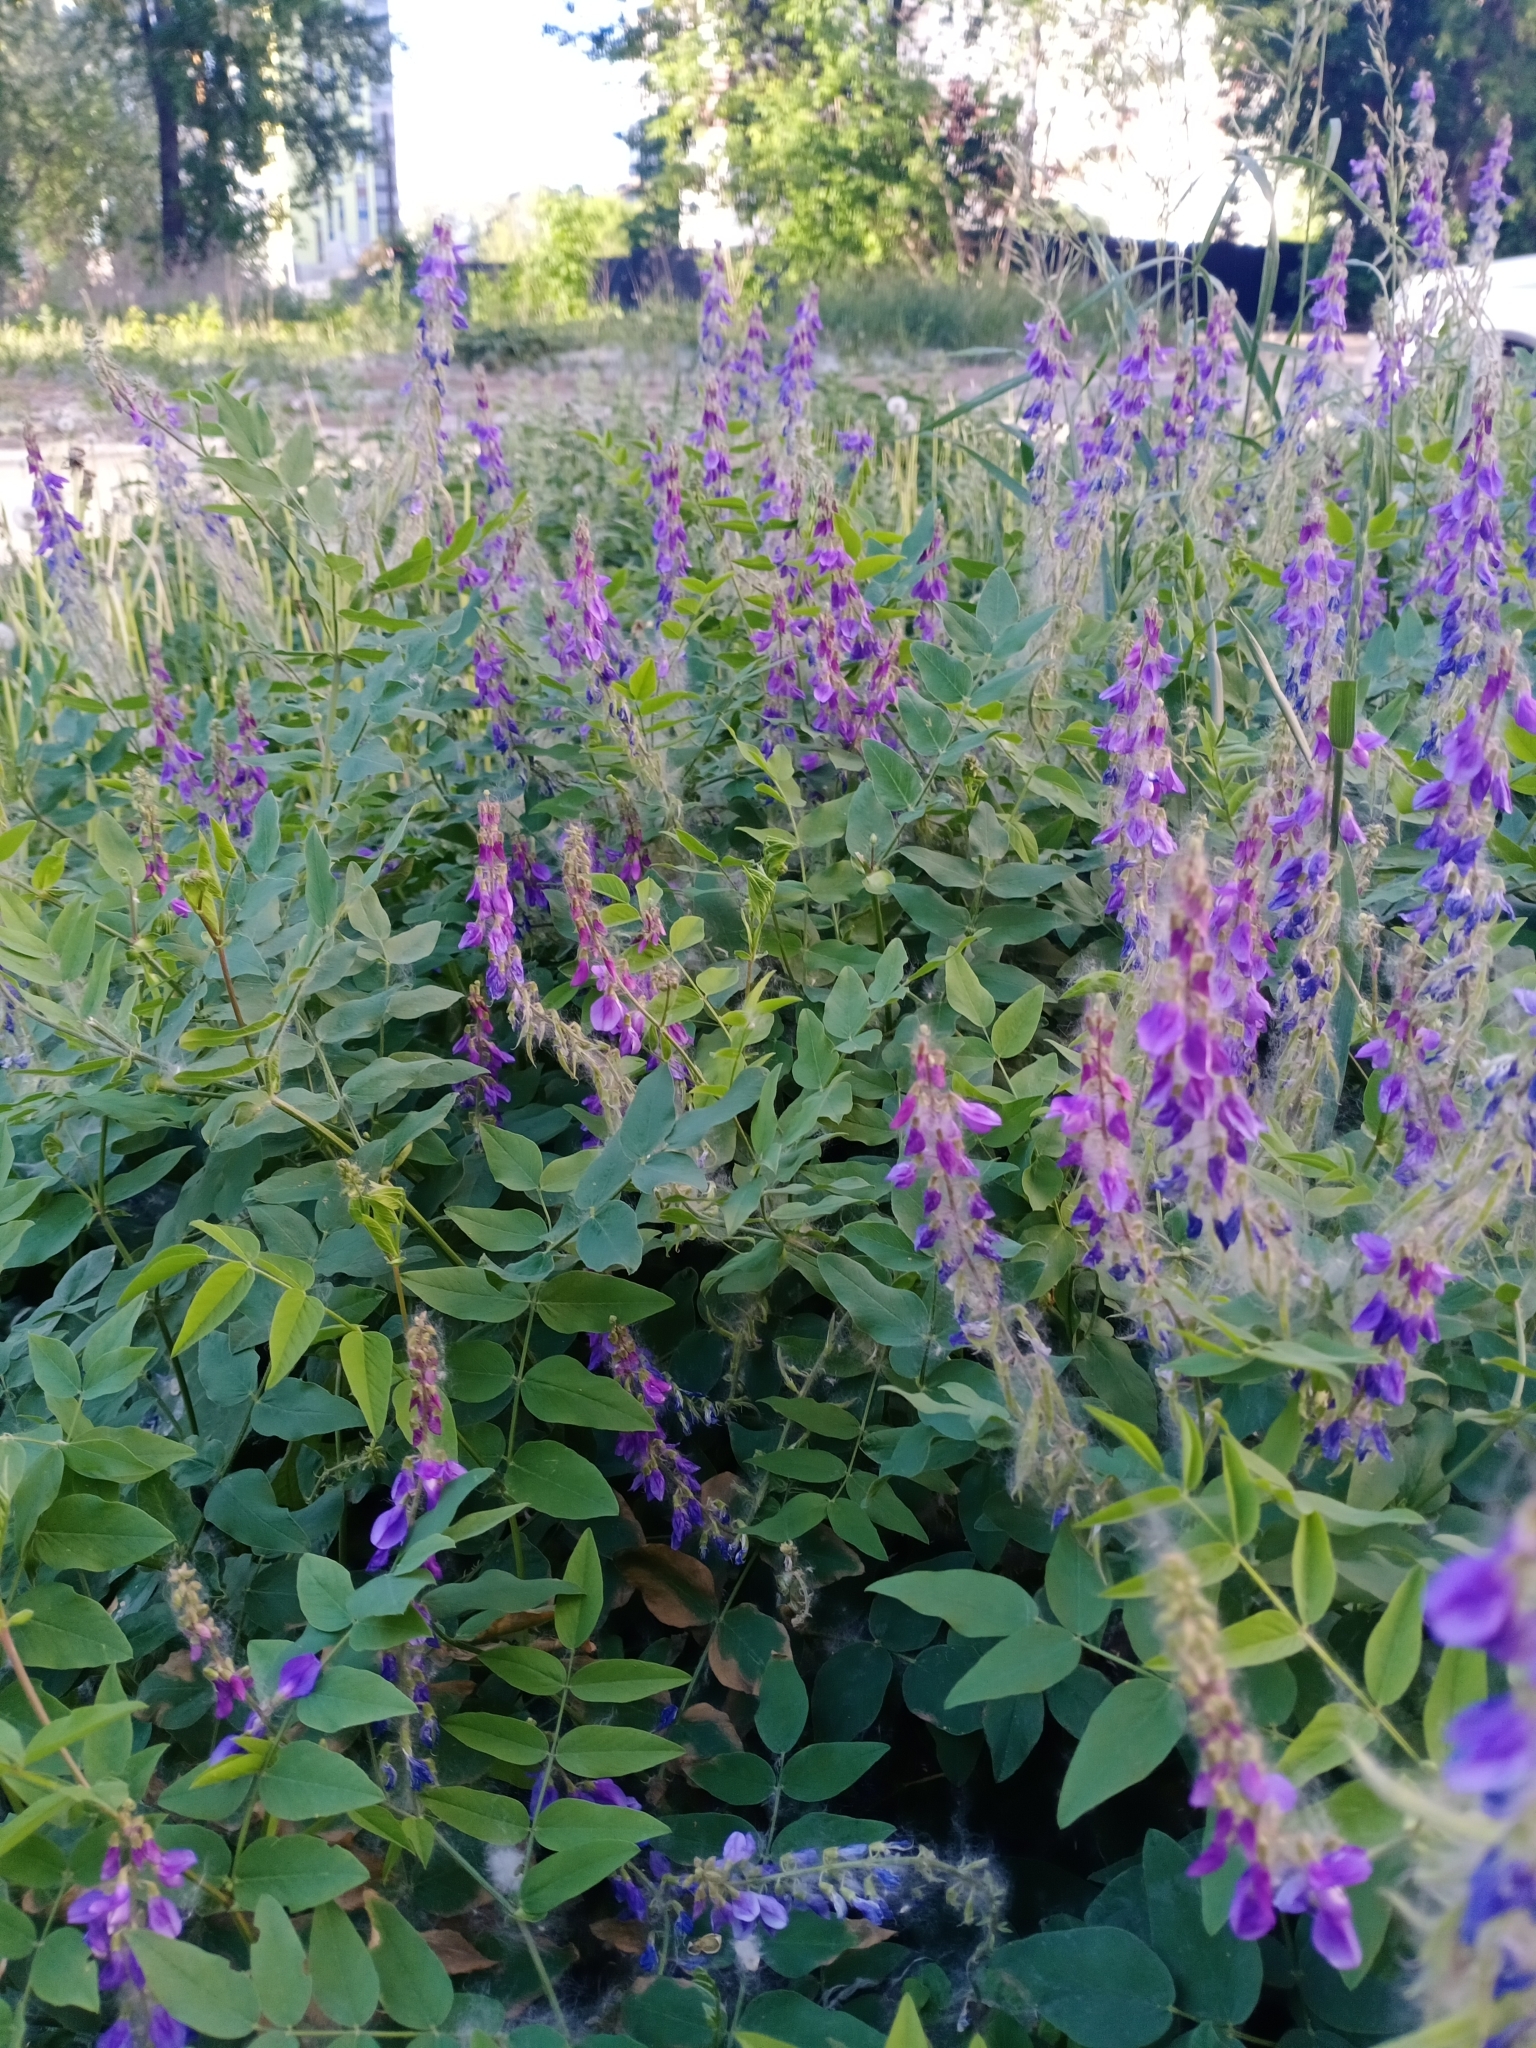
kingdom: Plantae
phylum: Tracheophyta
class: Magnoliopsida
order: Fabales
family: Fabaceae
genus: Galega
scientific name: Galega orientalis
